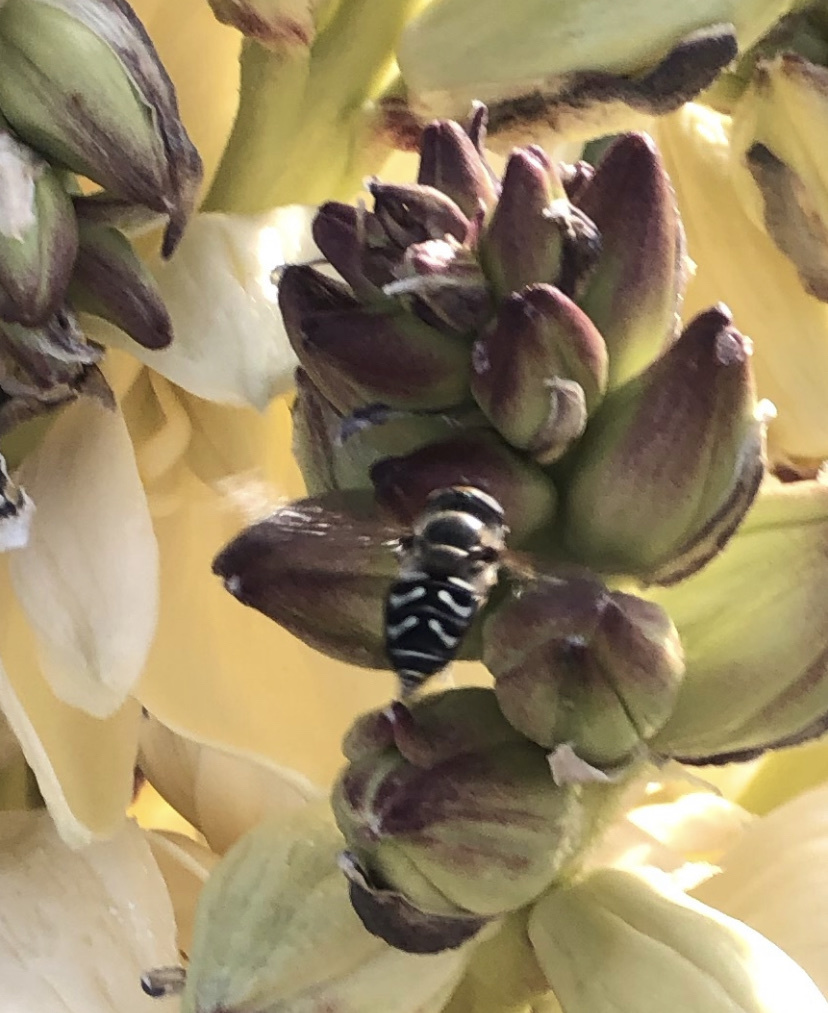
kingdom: Animalia
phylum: Arthropoda
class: Insecta
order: Diptera
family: Syrphidae
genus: Scaeva
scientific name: Scaeva affinis
